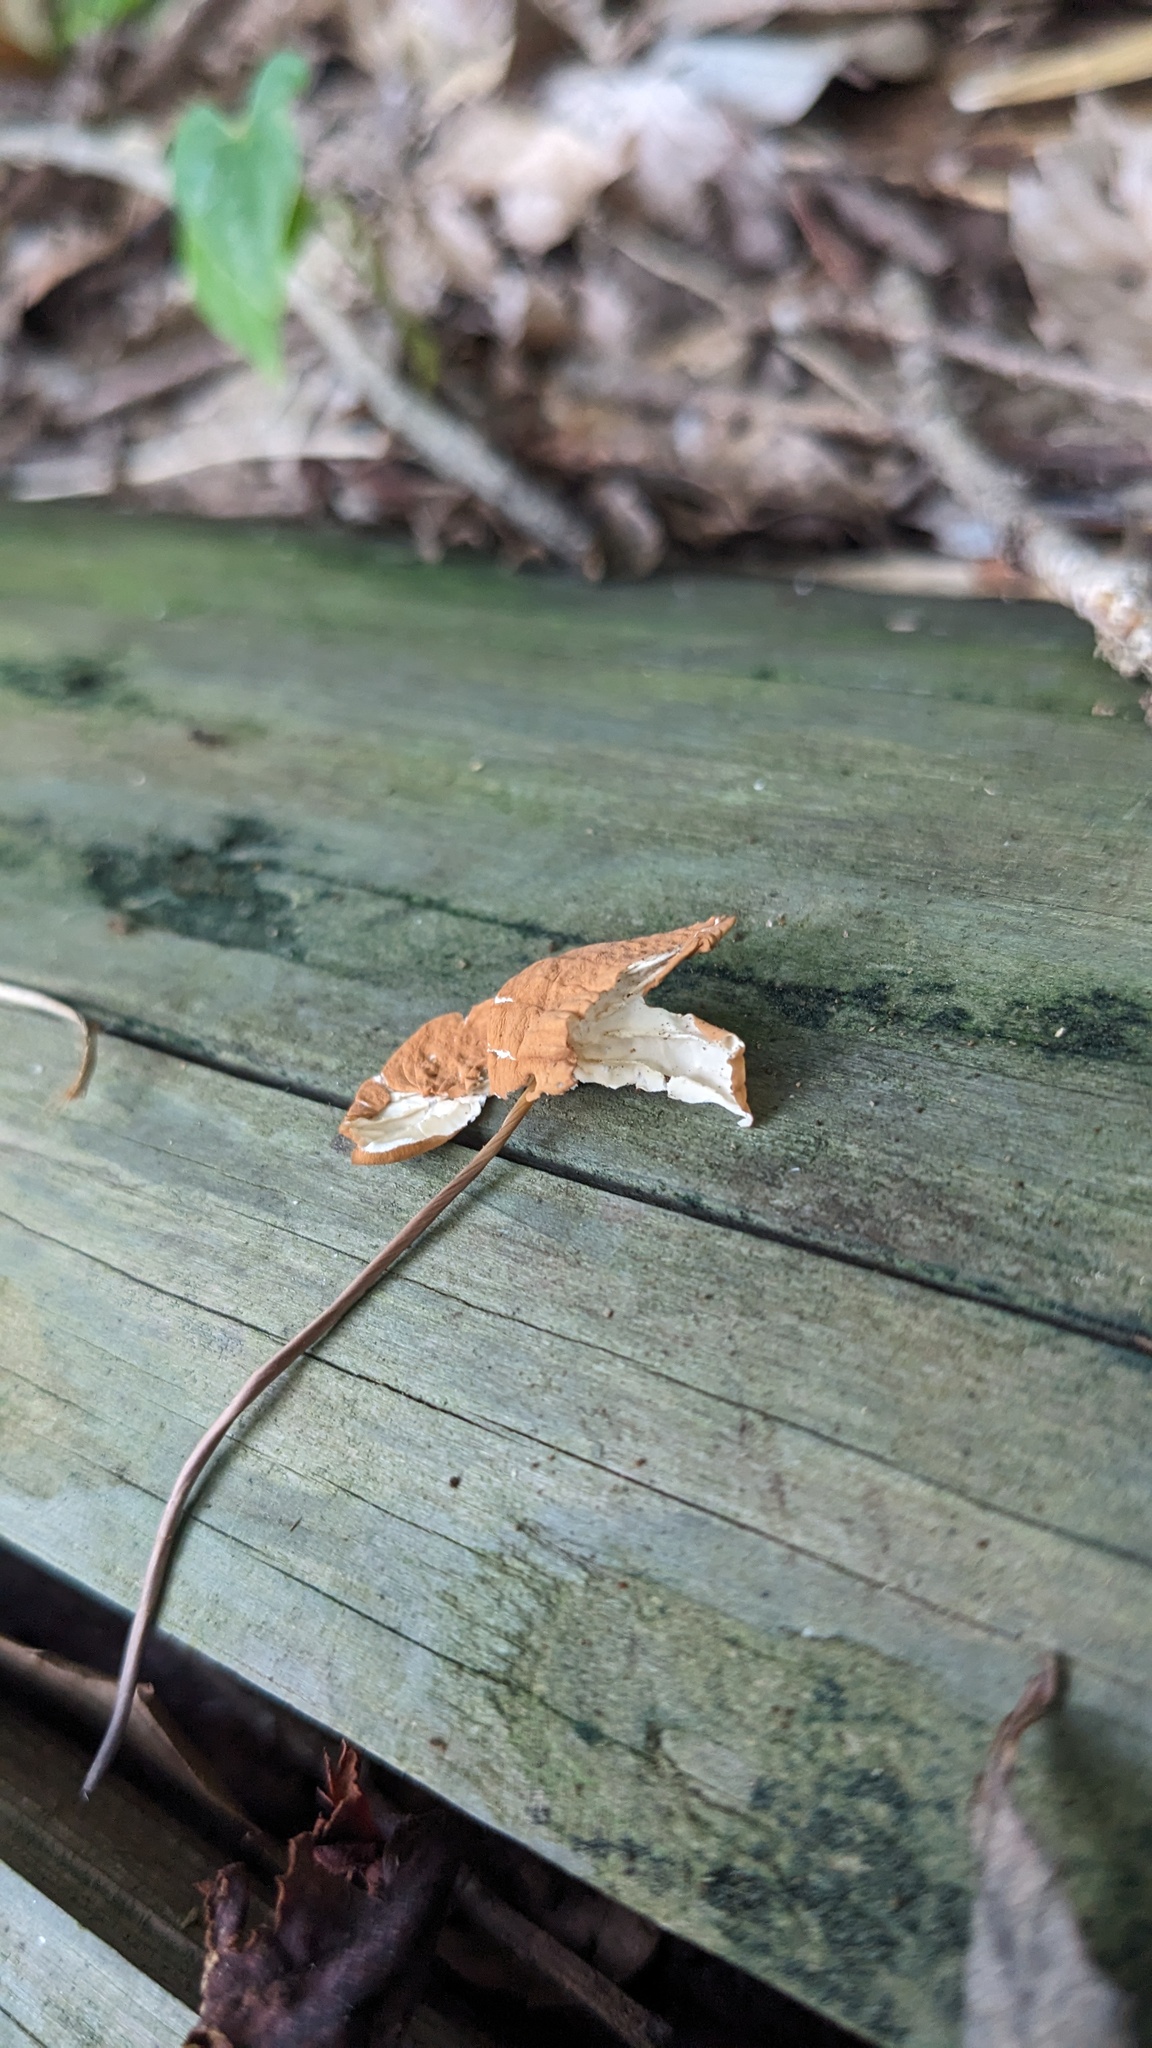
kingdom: Fungi
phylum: Basidiomycota
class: Agaricomycetes
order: Agaricales
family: Marasmiaceae
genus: Marasmius
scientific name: Marasmius siccus
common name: Orange pinwheel
